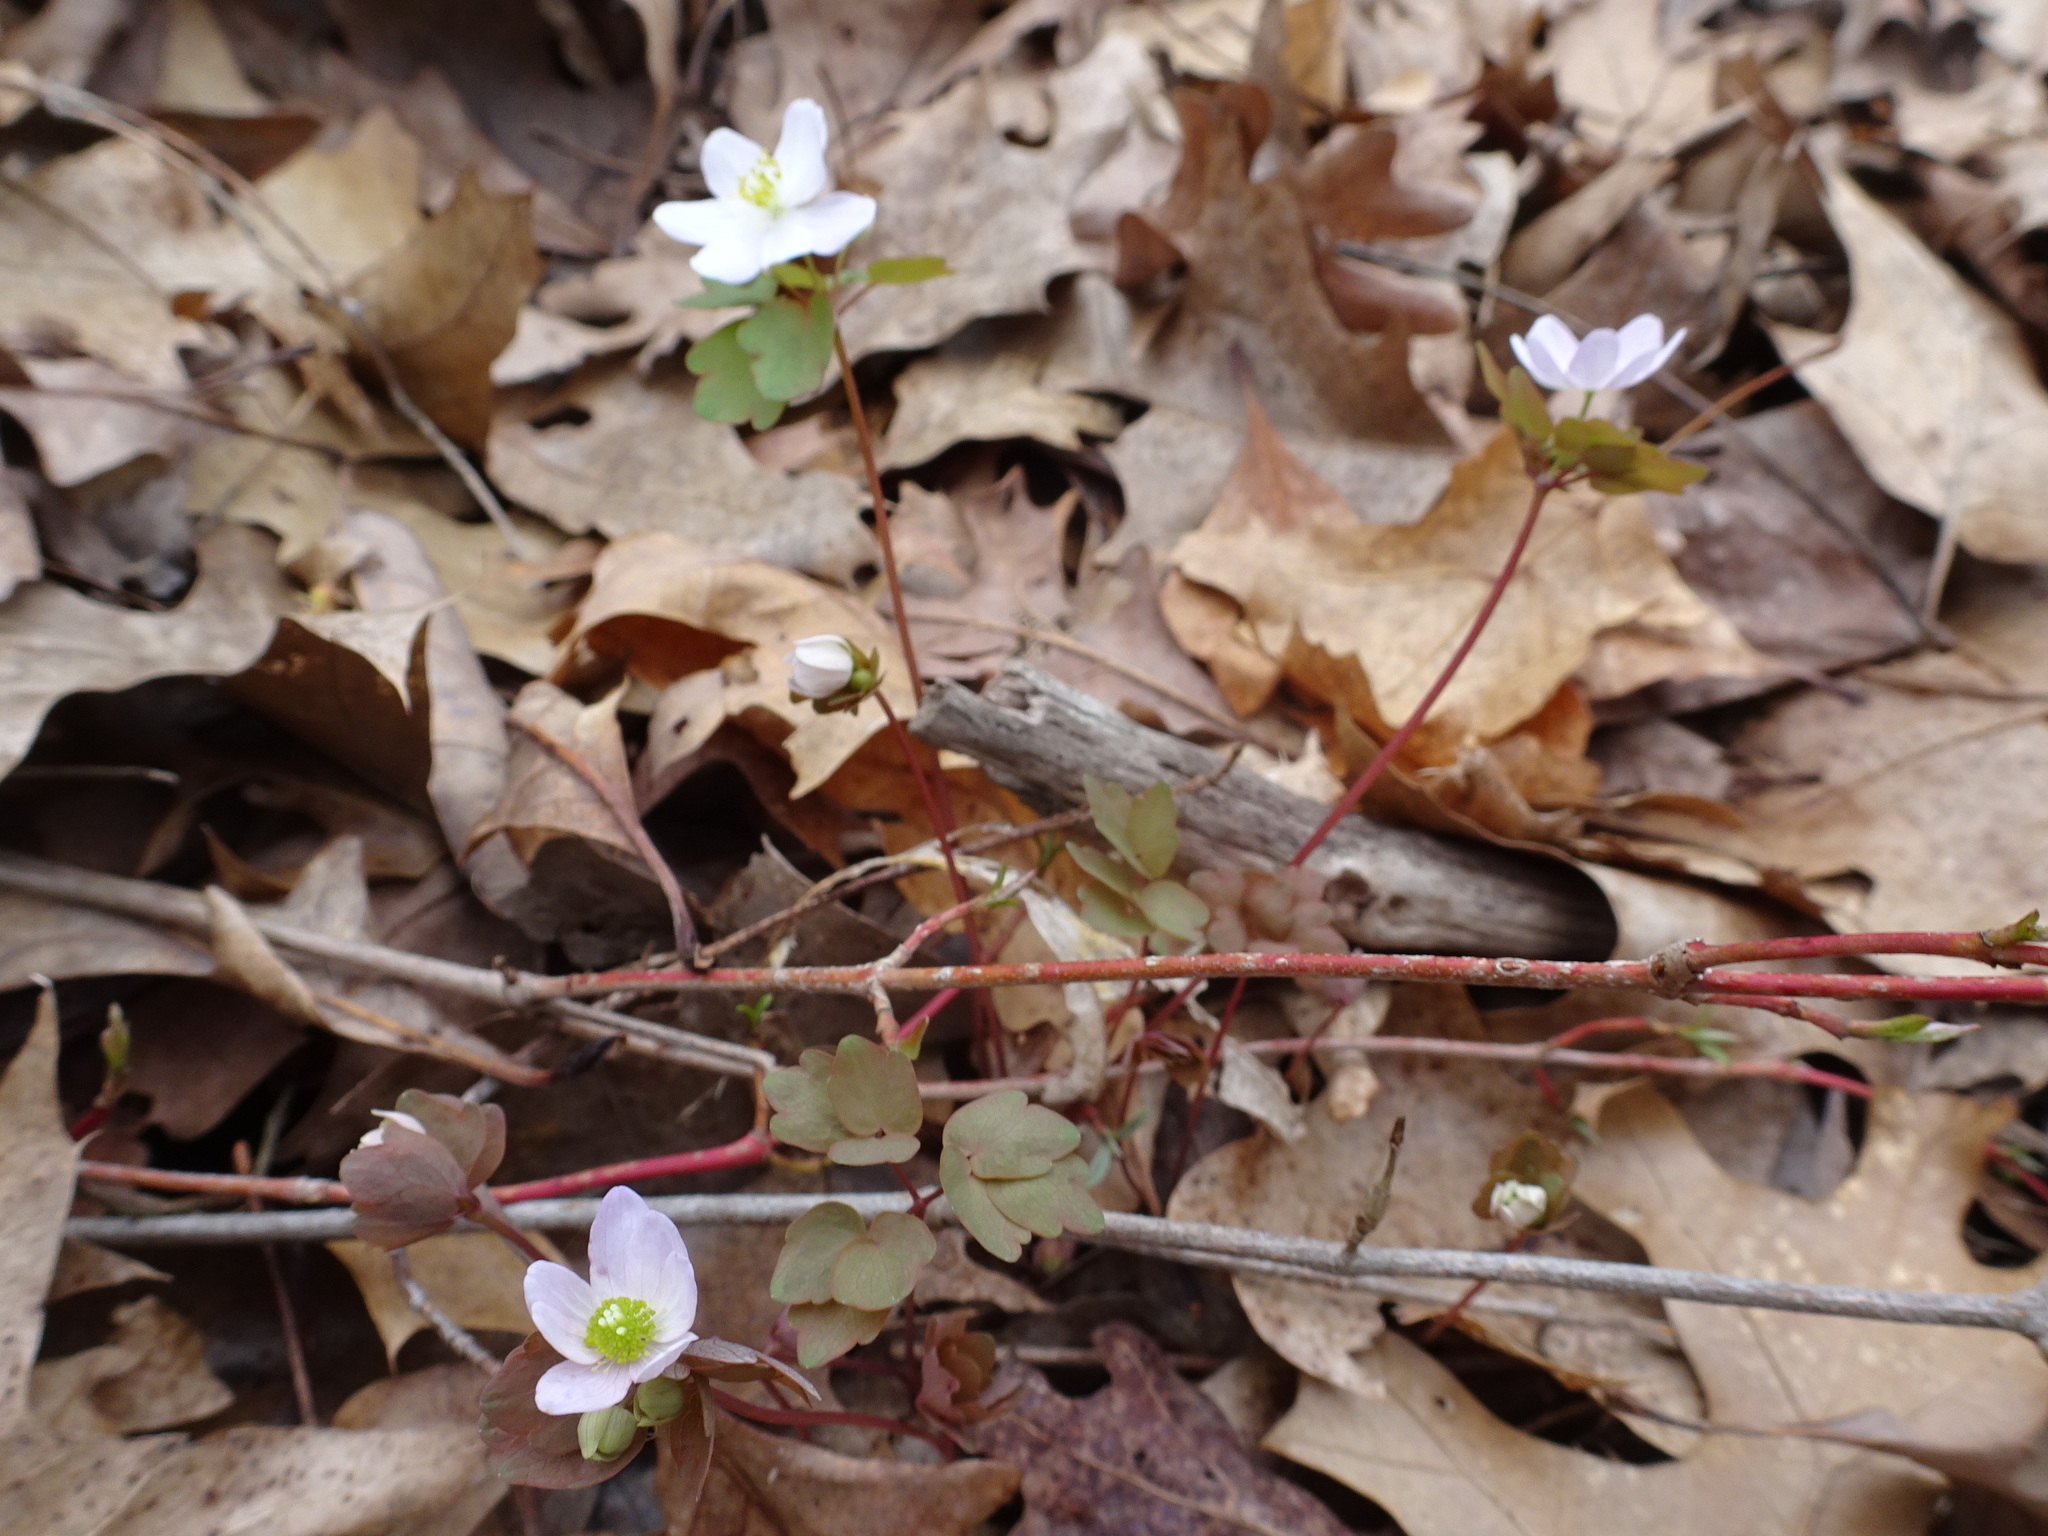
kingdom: Plantae
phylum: Tracheophyta
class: Magnoliopsida
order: Ranunculales
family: Ranunculaceae
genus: Thalictrum
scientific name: Thalictrum thalictroides
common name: Rue-anemone
